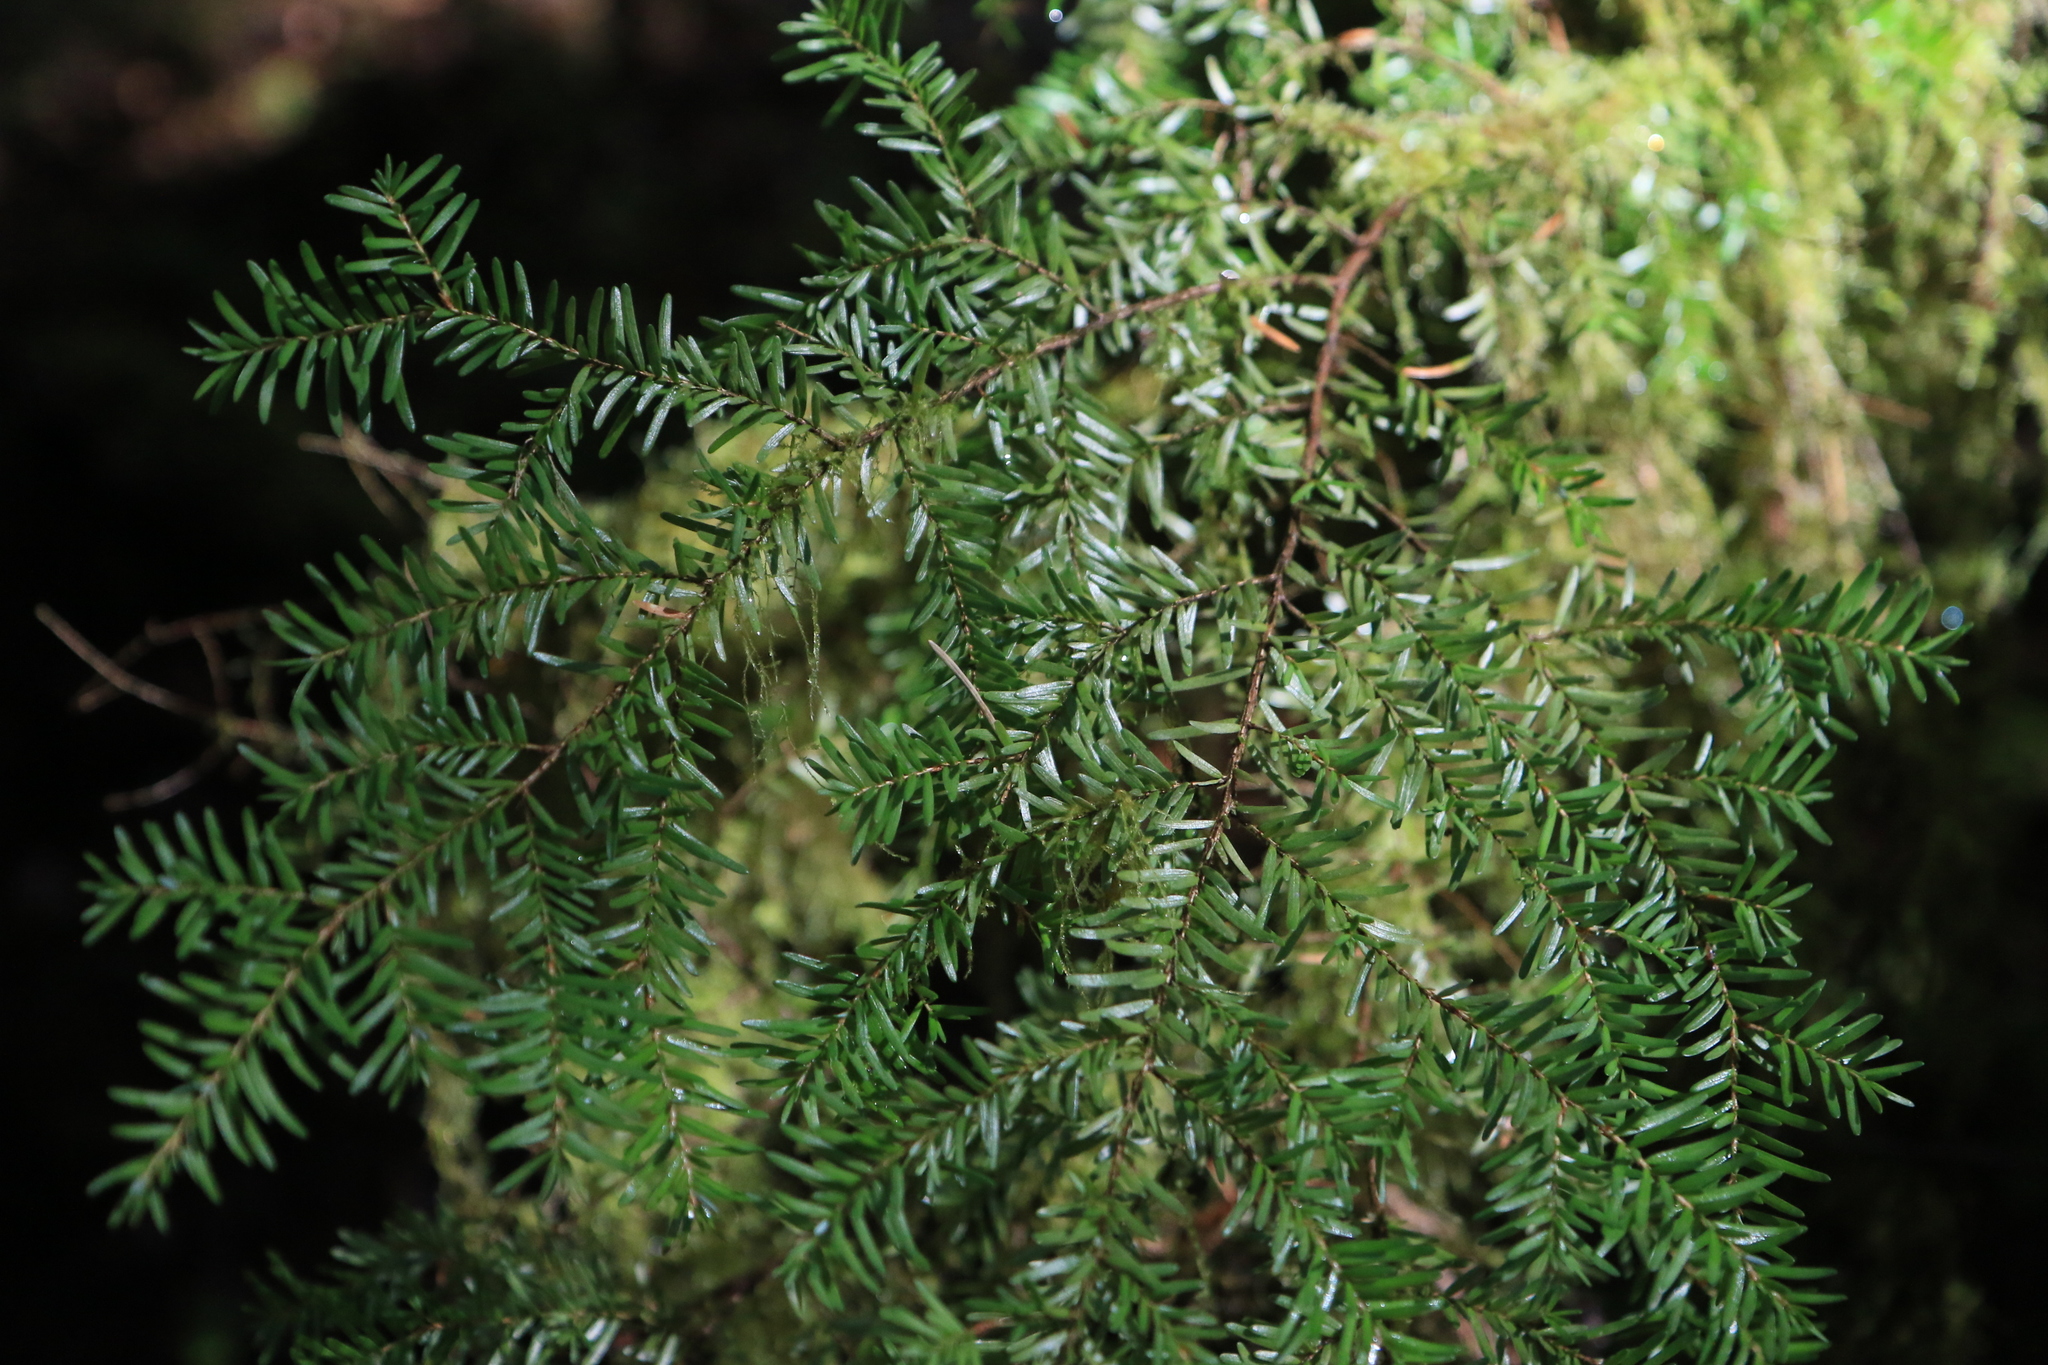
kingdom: Plantae
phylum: Tracheophyta
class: Pinopsida
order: Pinales
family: Pinaceae
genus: Tsuga
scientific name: Tsuga heterophylla
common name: Western hemlock
